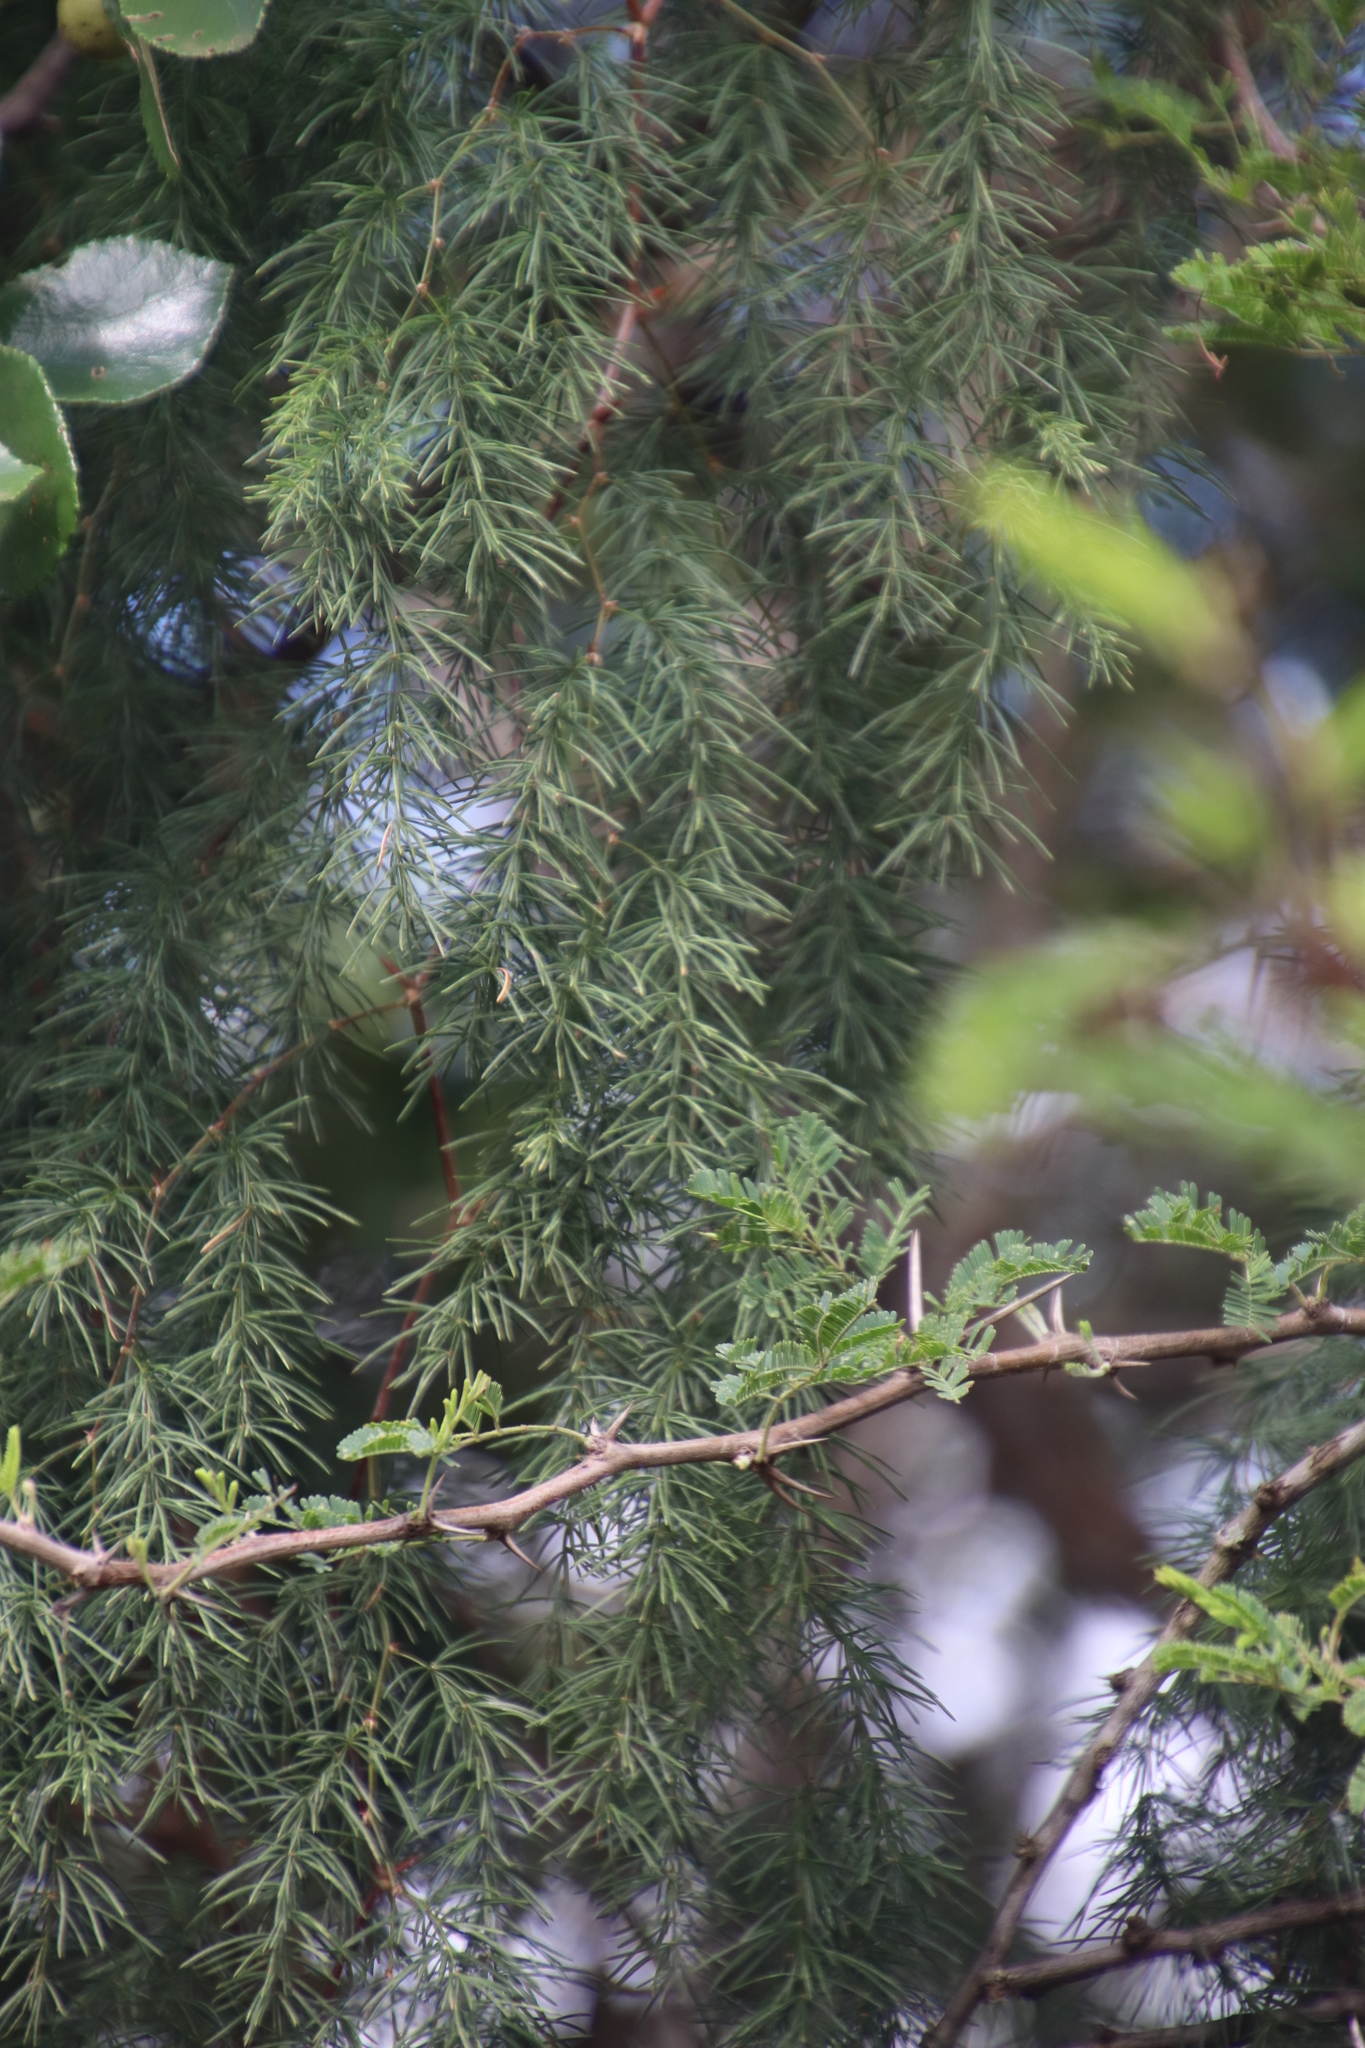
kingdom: Plantae
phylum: Tracheophyta
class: Liliopsida
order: Asparagales
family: Asparagaceae
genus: Asparagus
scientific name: Asparagus buchananii
